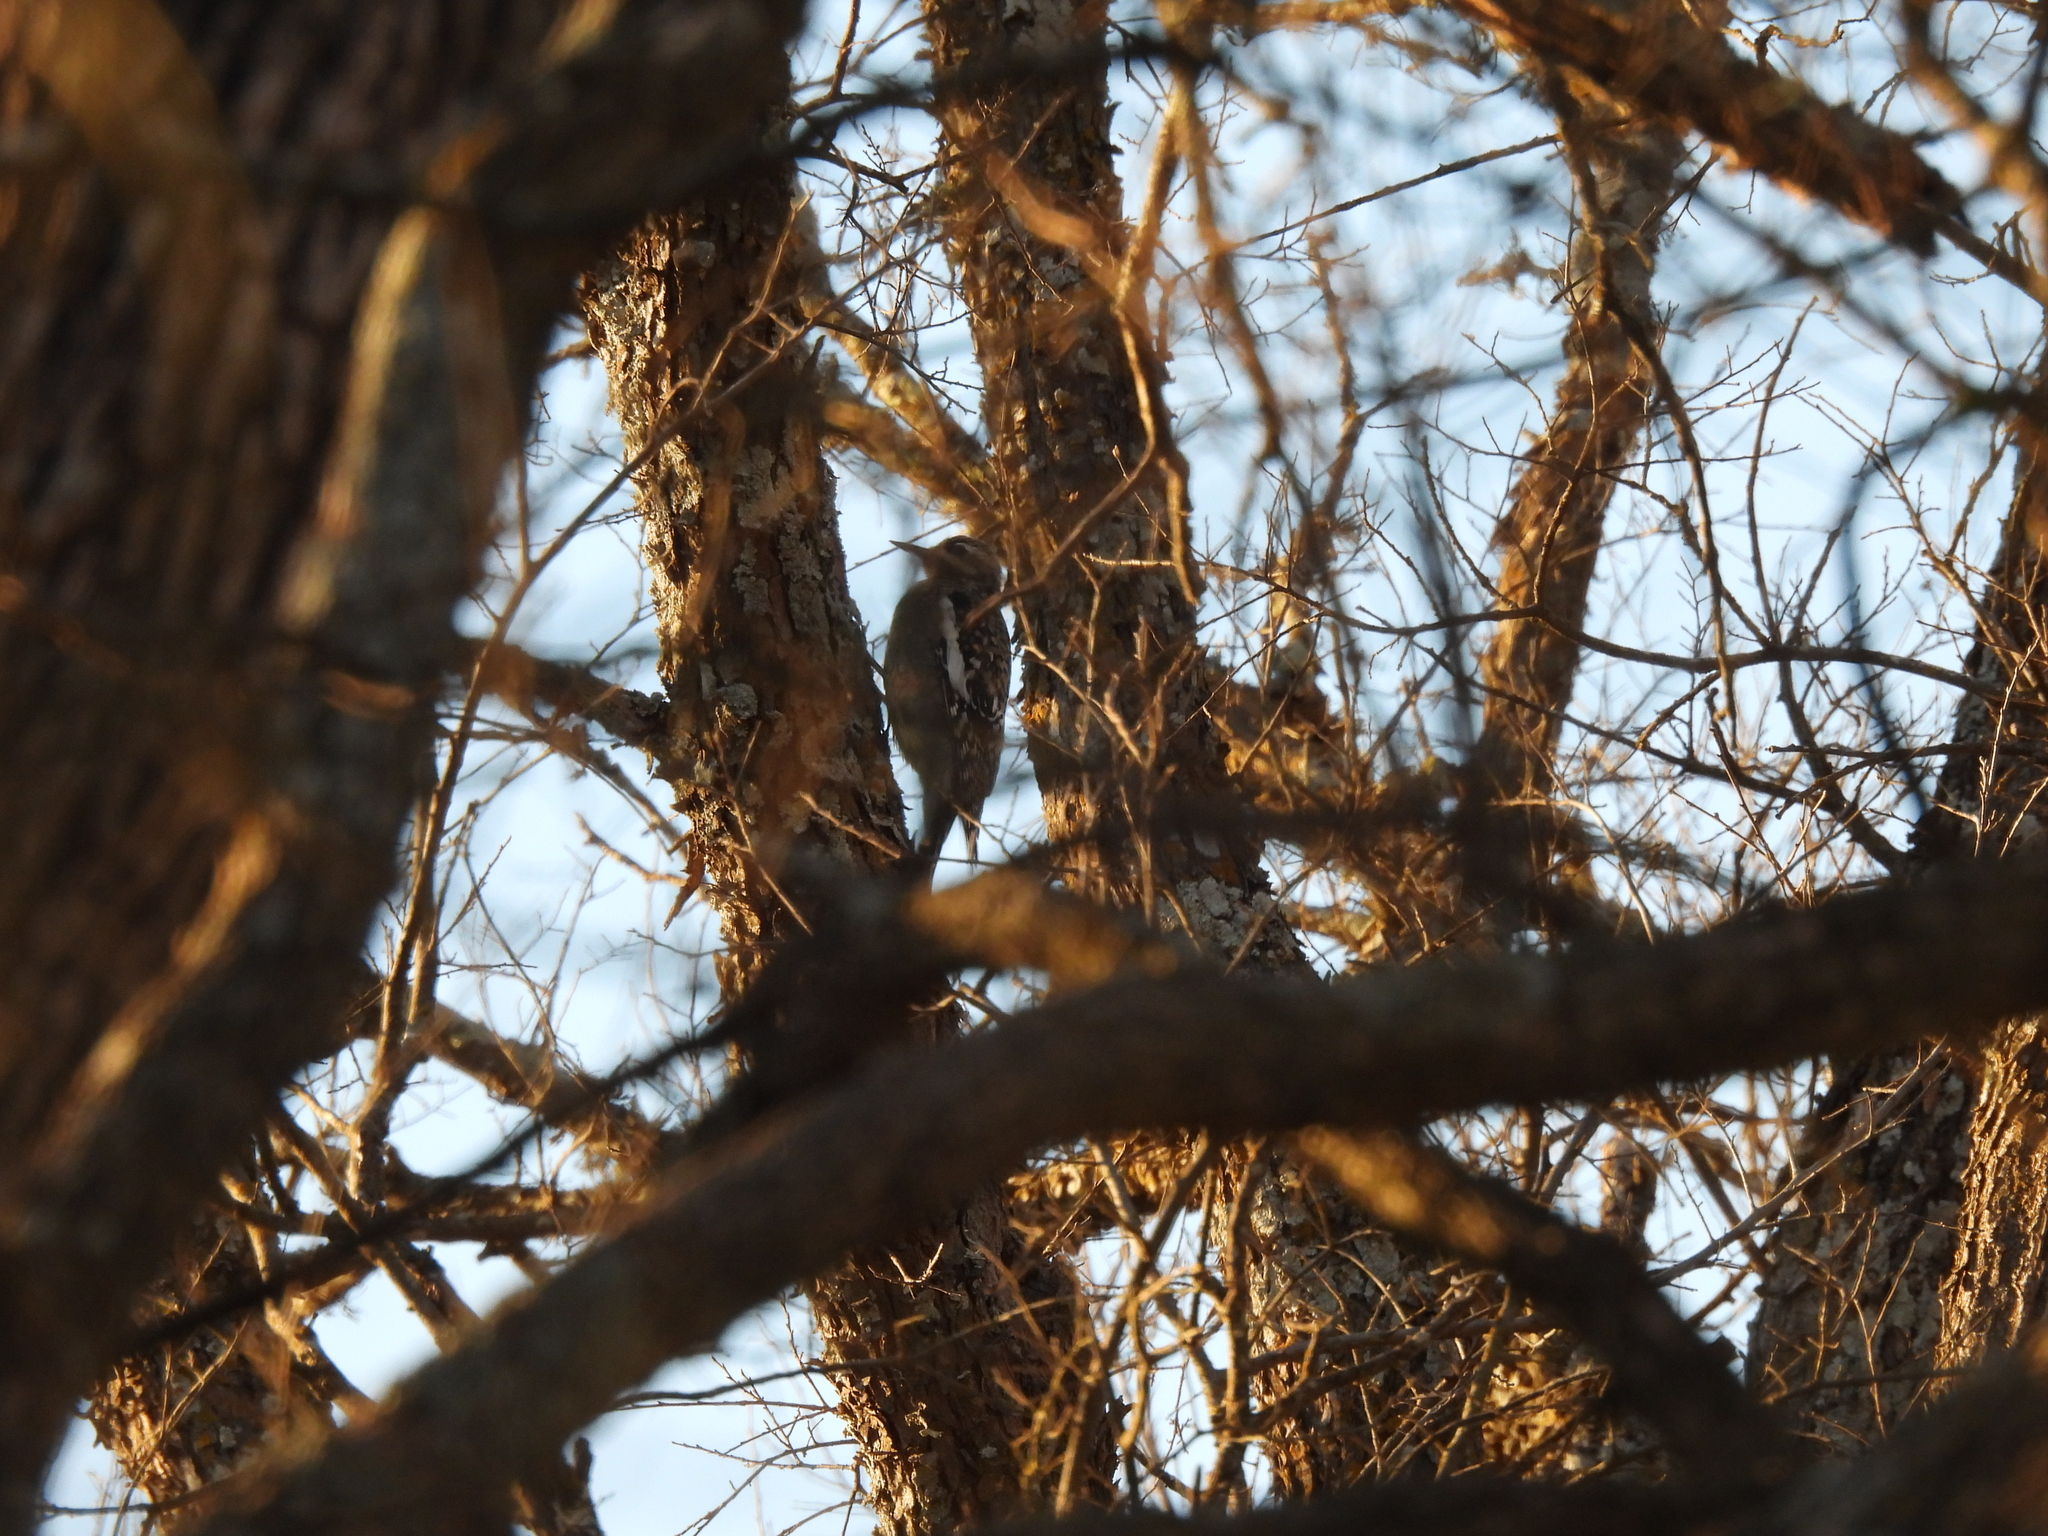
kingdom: Animalia
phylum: Chordata
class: Aves
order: Piciformes
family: Picidae
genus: Sphyrapicus
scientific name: Sphyrapicus varius
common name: Yellow-bellied sapsucker
